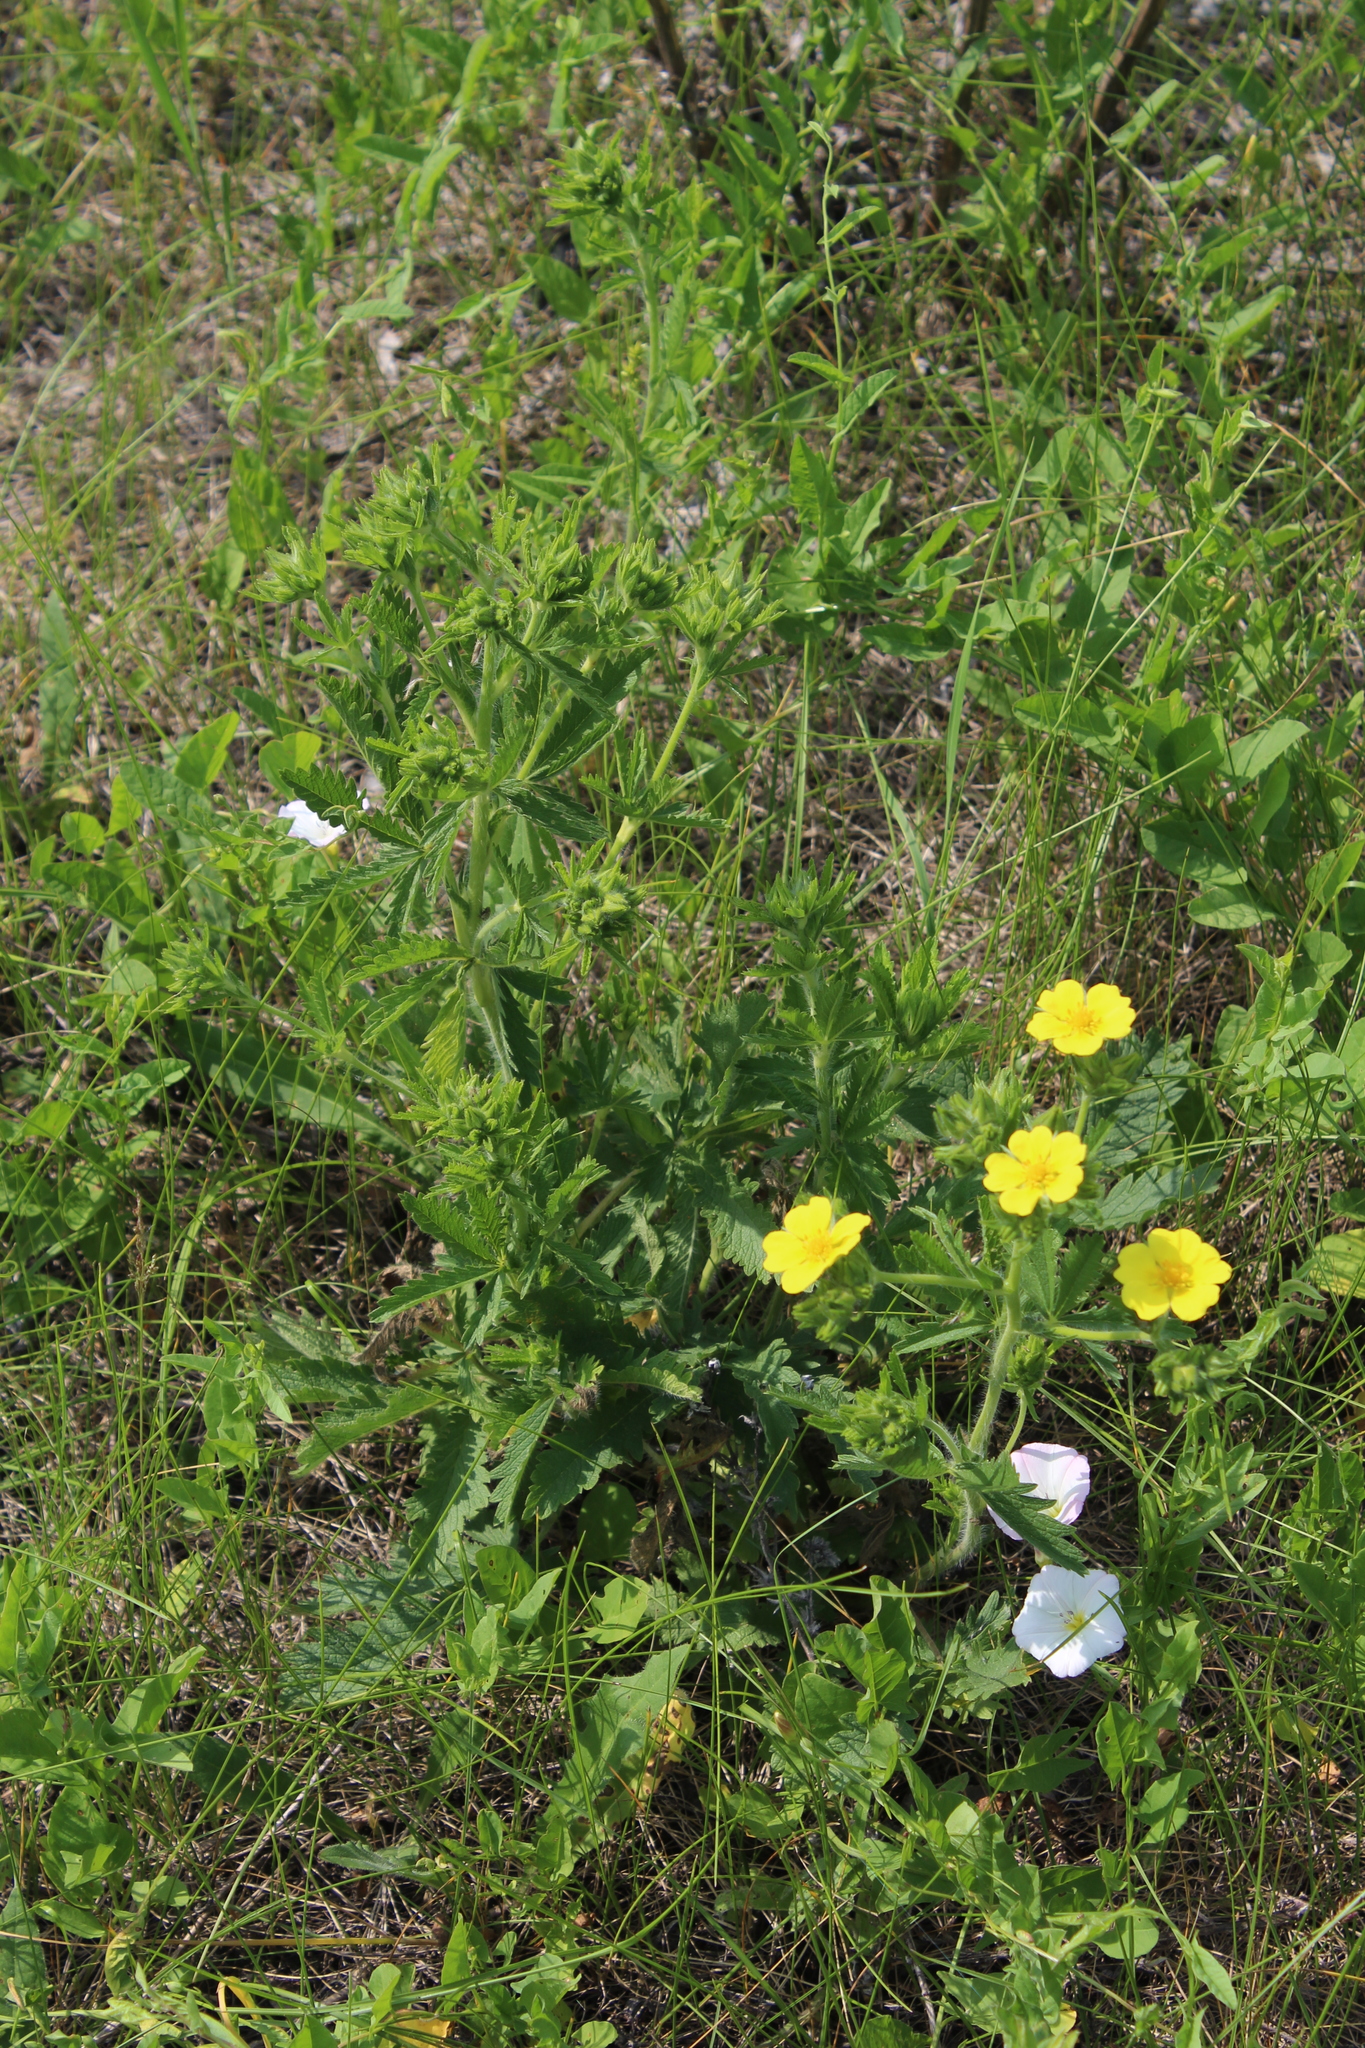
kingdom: Plantae
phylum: Tracheophyta
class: Magnoliopsida
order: Rosales
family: Rosaceae
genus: Potentilla
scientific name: Potentilla recta
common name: Sulphur cinquefoil
